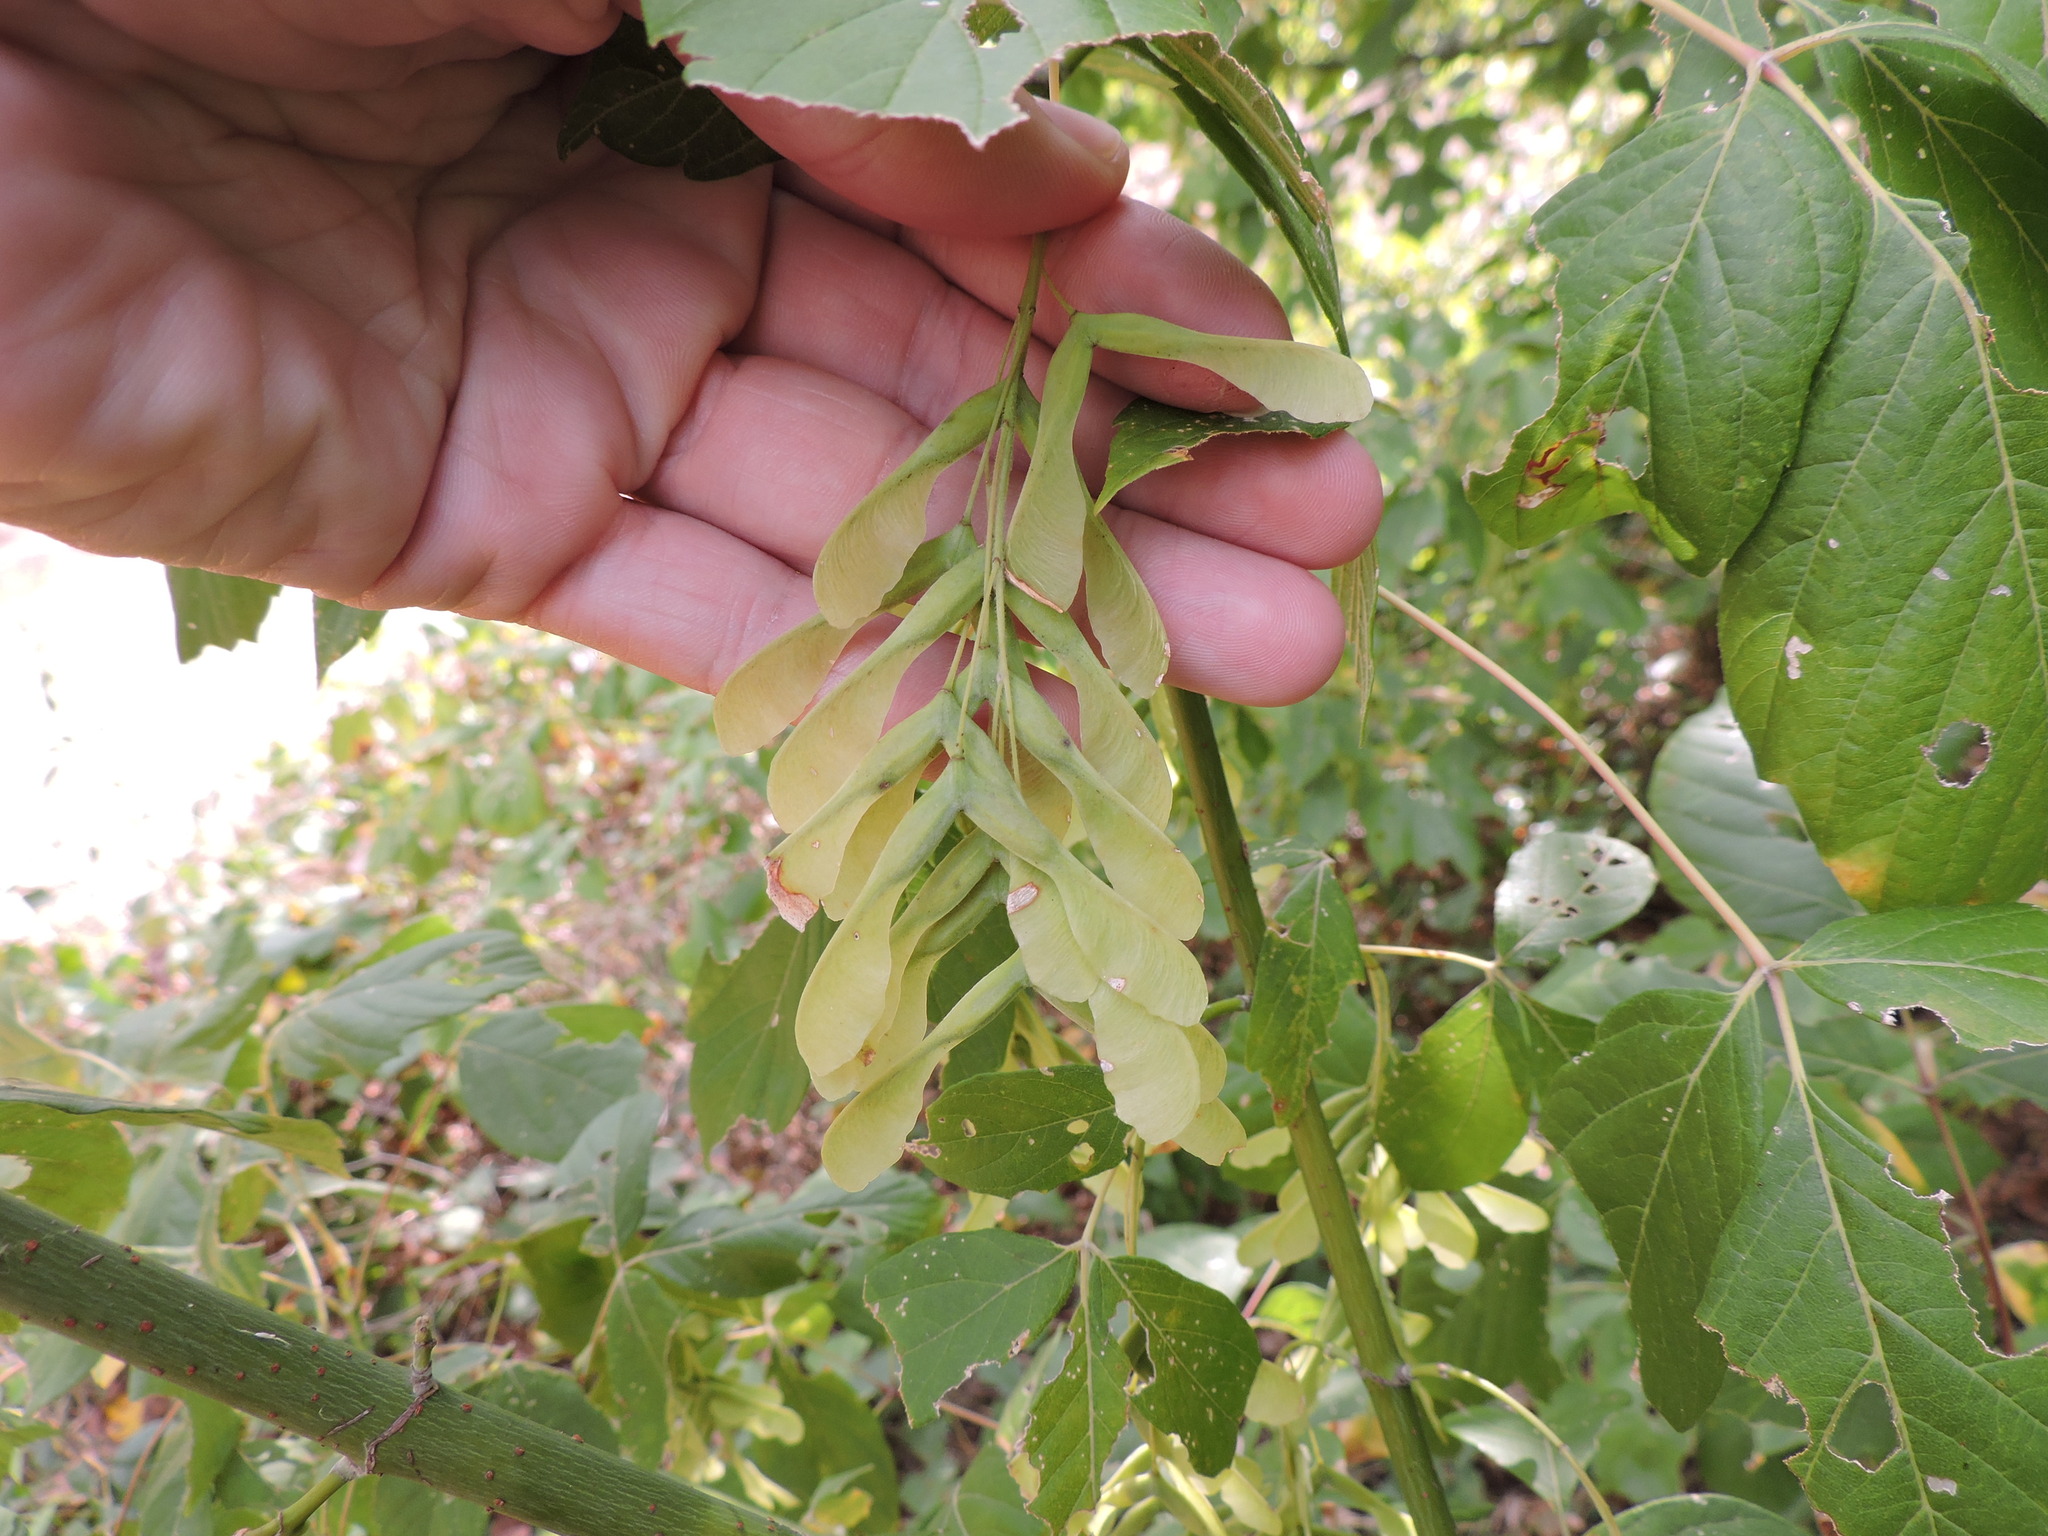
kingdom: Plantae
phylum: Tracheophyta
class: Magnoliopsida
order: Sapindales
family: Sapindaceae
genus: Acer
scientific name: Acer negundo
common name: Ashleaf maple
